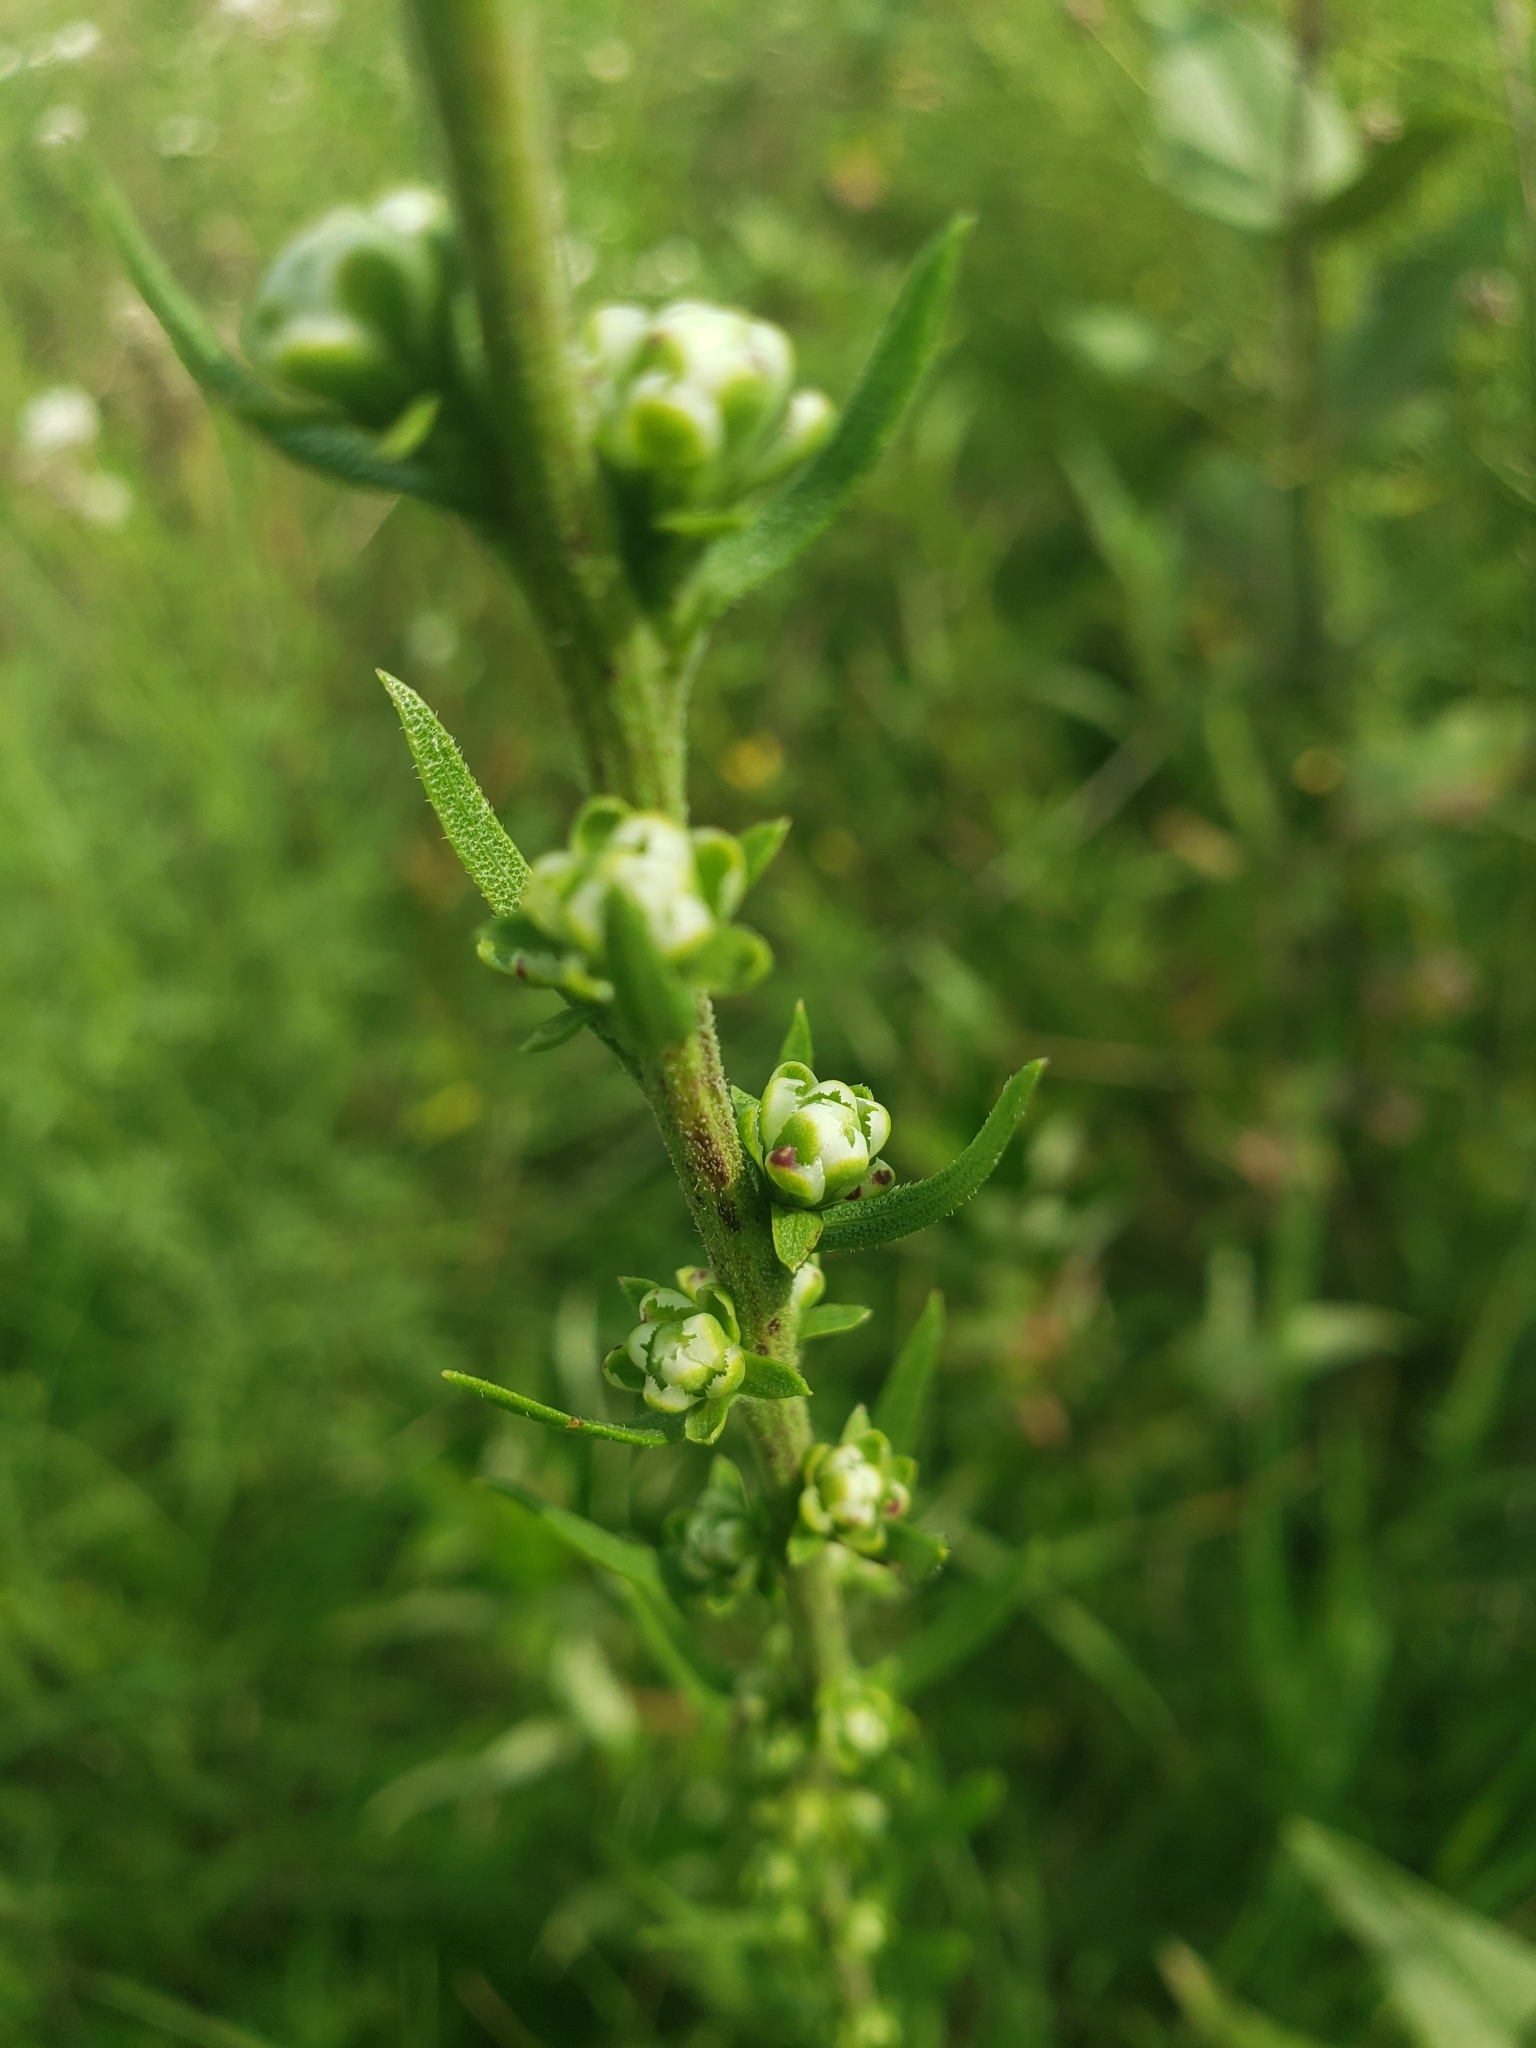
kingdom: Plantae
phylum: Tracheophyta
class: Magnoliopsida
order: Asterales
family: Asteraceae
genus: Liatris
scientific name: Liatris aspera
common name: Lacerate blazing-star
